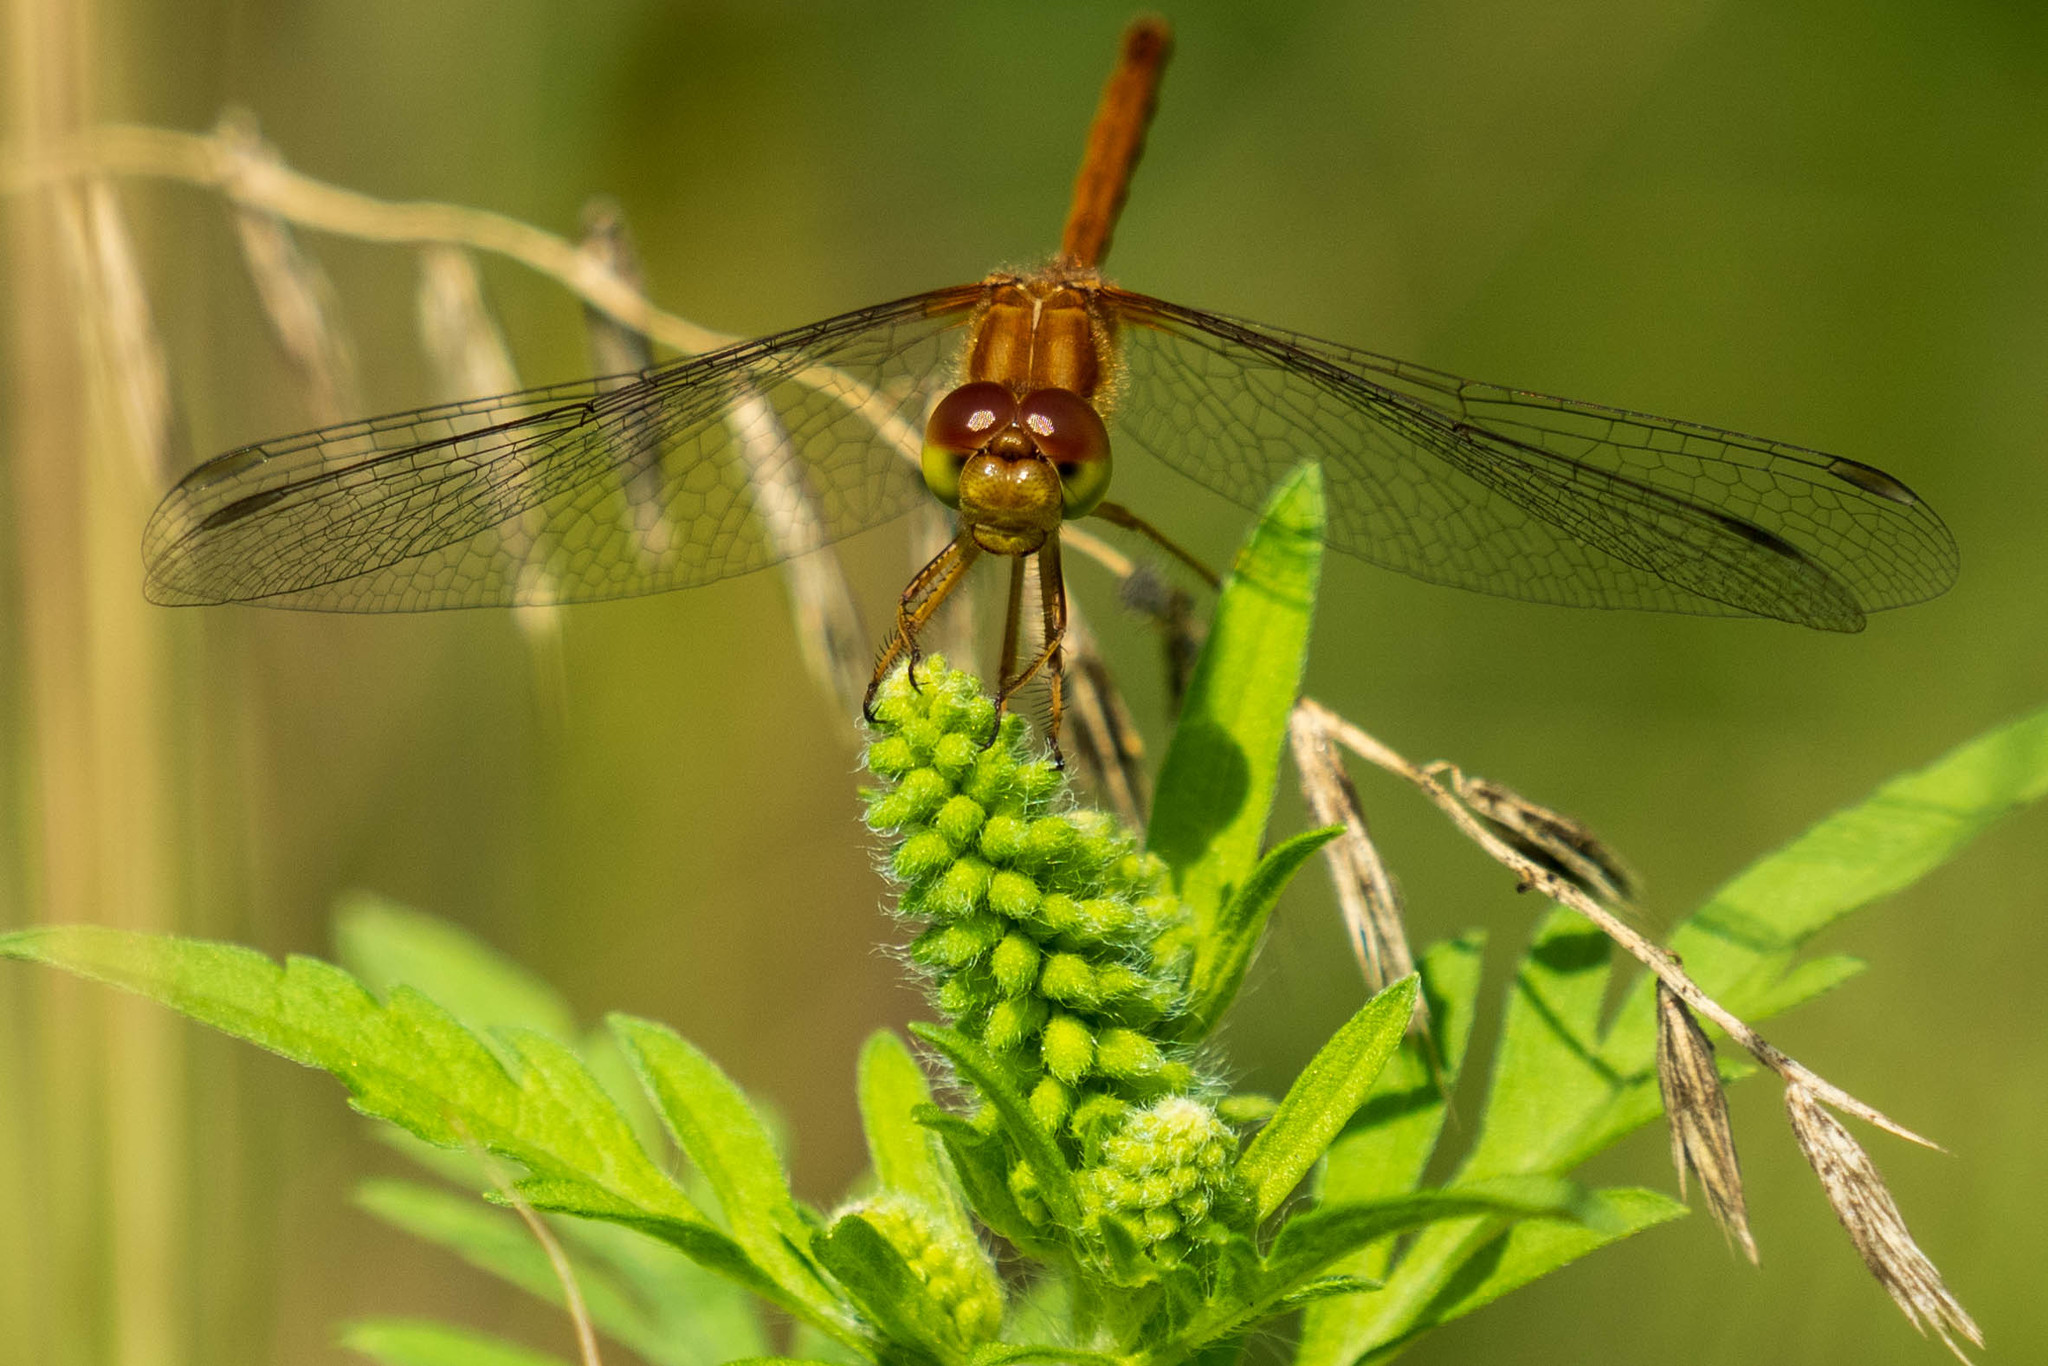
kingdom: Animalia
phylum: Arthropoda
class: Insecta
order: Odonata
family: Libellulidae
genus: Sympetrum
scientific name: Sympetrum vicinum
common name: Autumn meadowhawk
